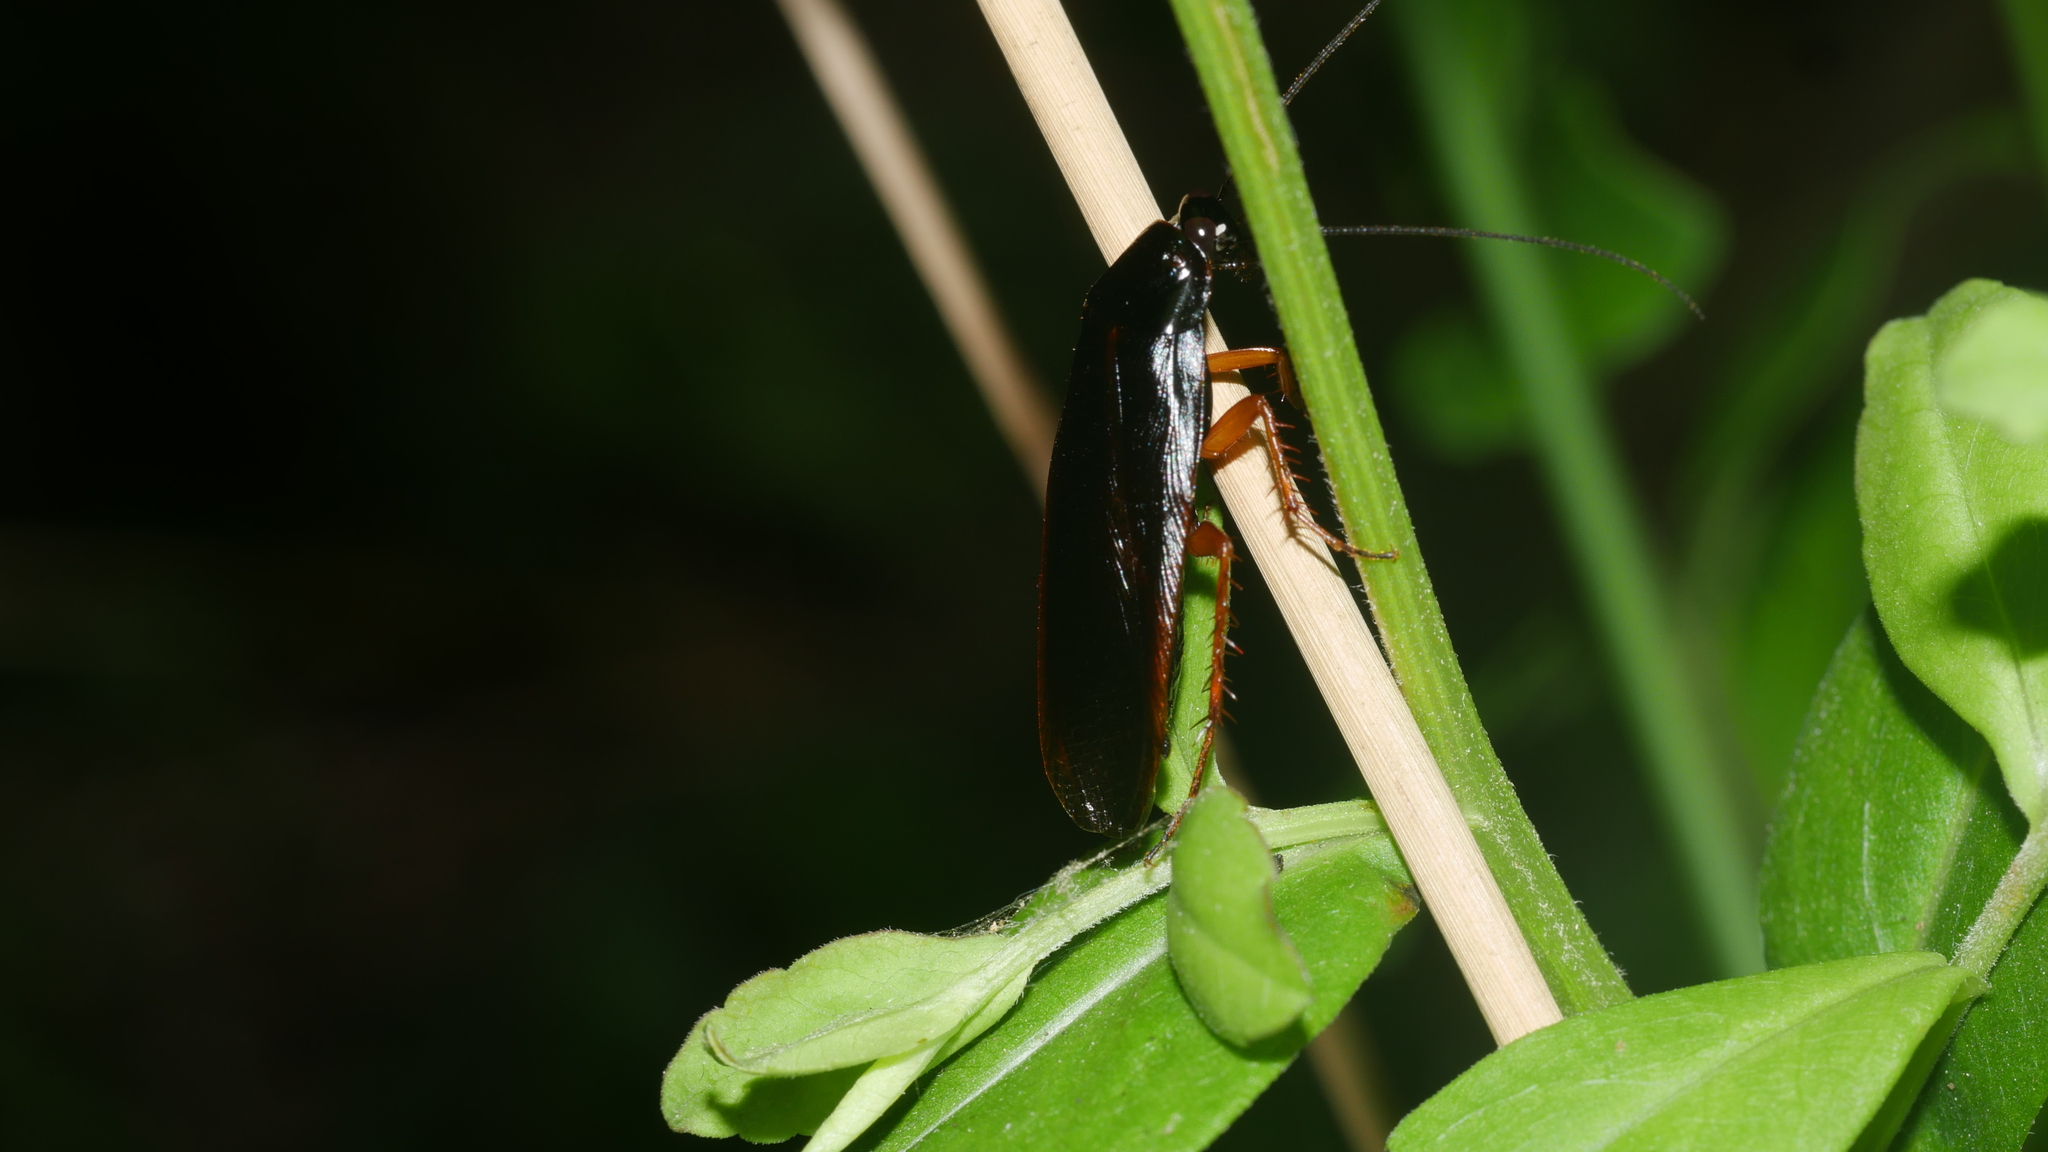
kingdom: Animalia
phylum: Arthropoda
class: Insecta
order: Blattodea
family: Ectobiidae
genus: Ischnoptera
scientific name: Ischnoptera deropeltiformis
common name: Dark wood cockroach
